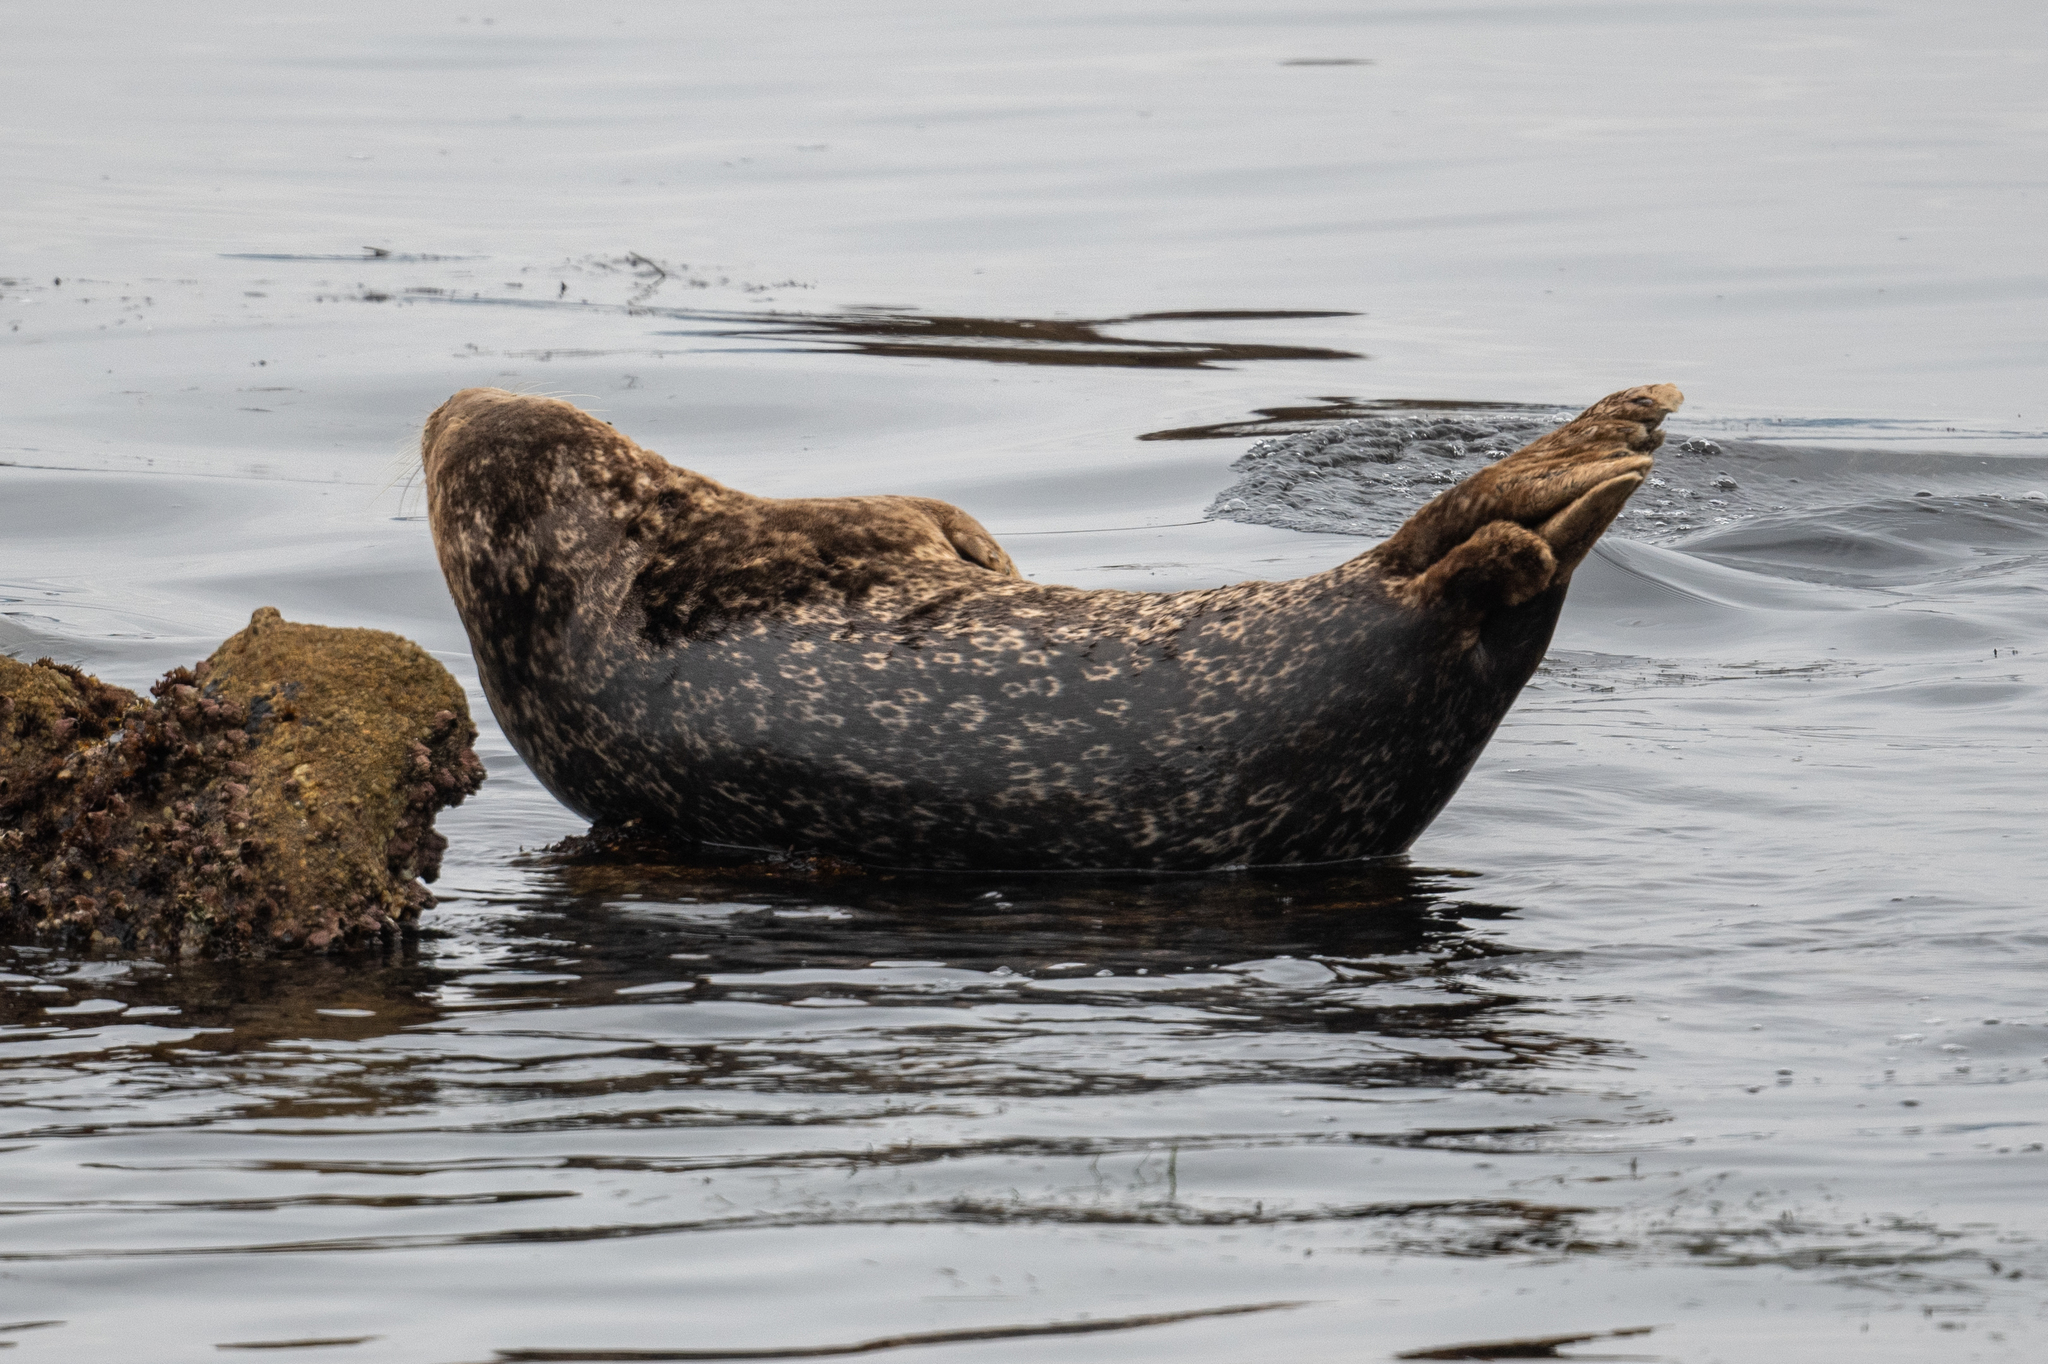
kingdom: Animalia
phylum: Chordata
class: Mammalia
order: Carnivora
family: Phocidae
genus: Phoca
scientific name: Phoca vitulina
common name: Harbor seal
